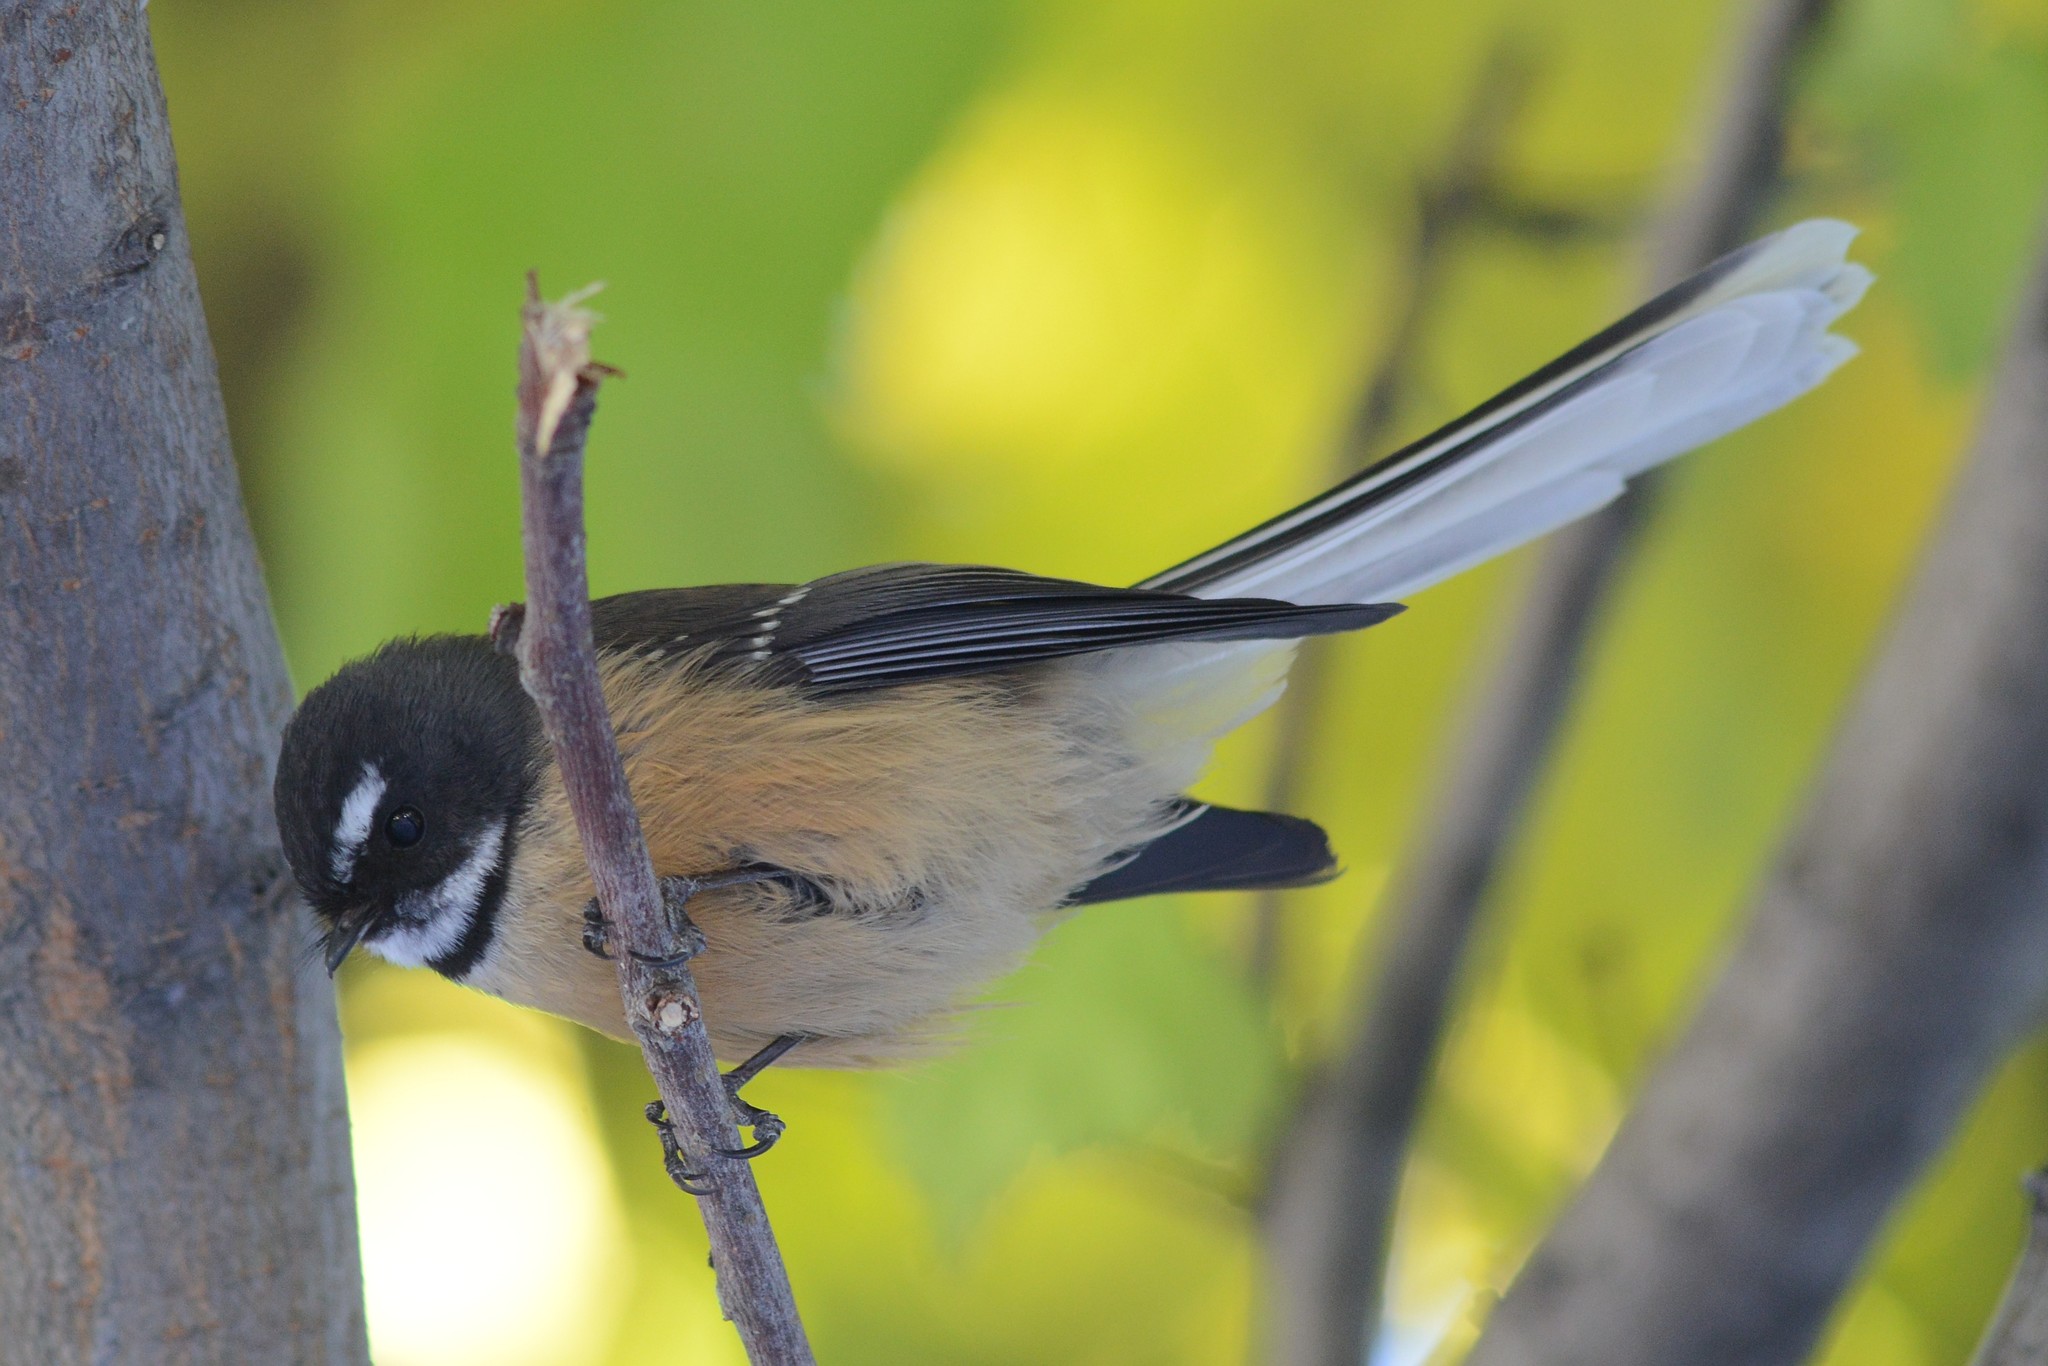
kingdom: Animalia
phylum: Chordata
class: Aves
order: Passeriformes
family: Rhipiduridae
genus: Rhipidura
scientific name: Rhipidura fuliginosa
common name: New zealand fantail
